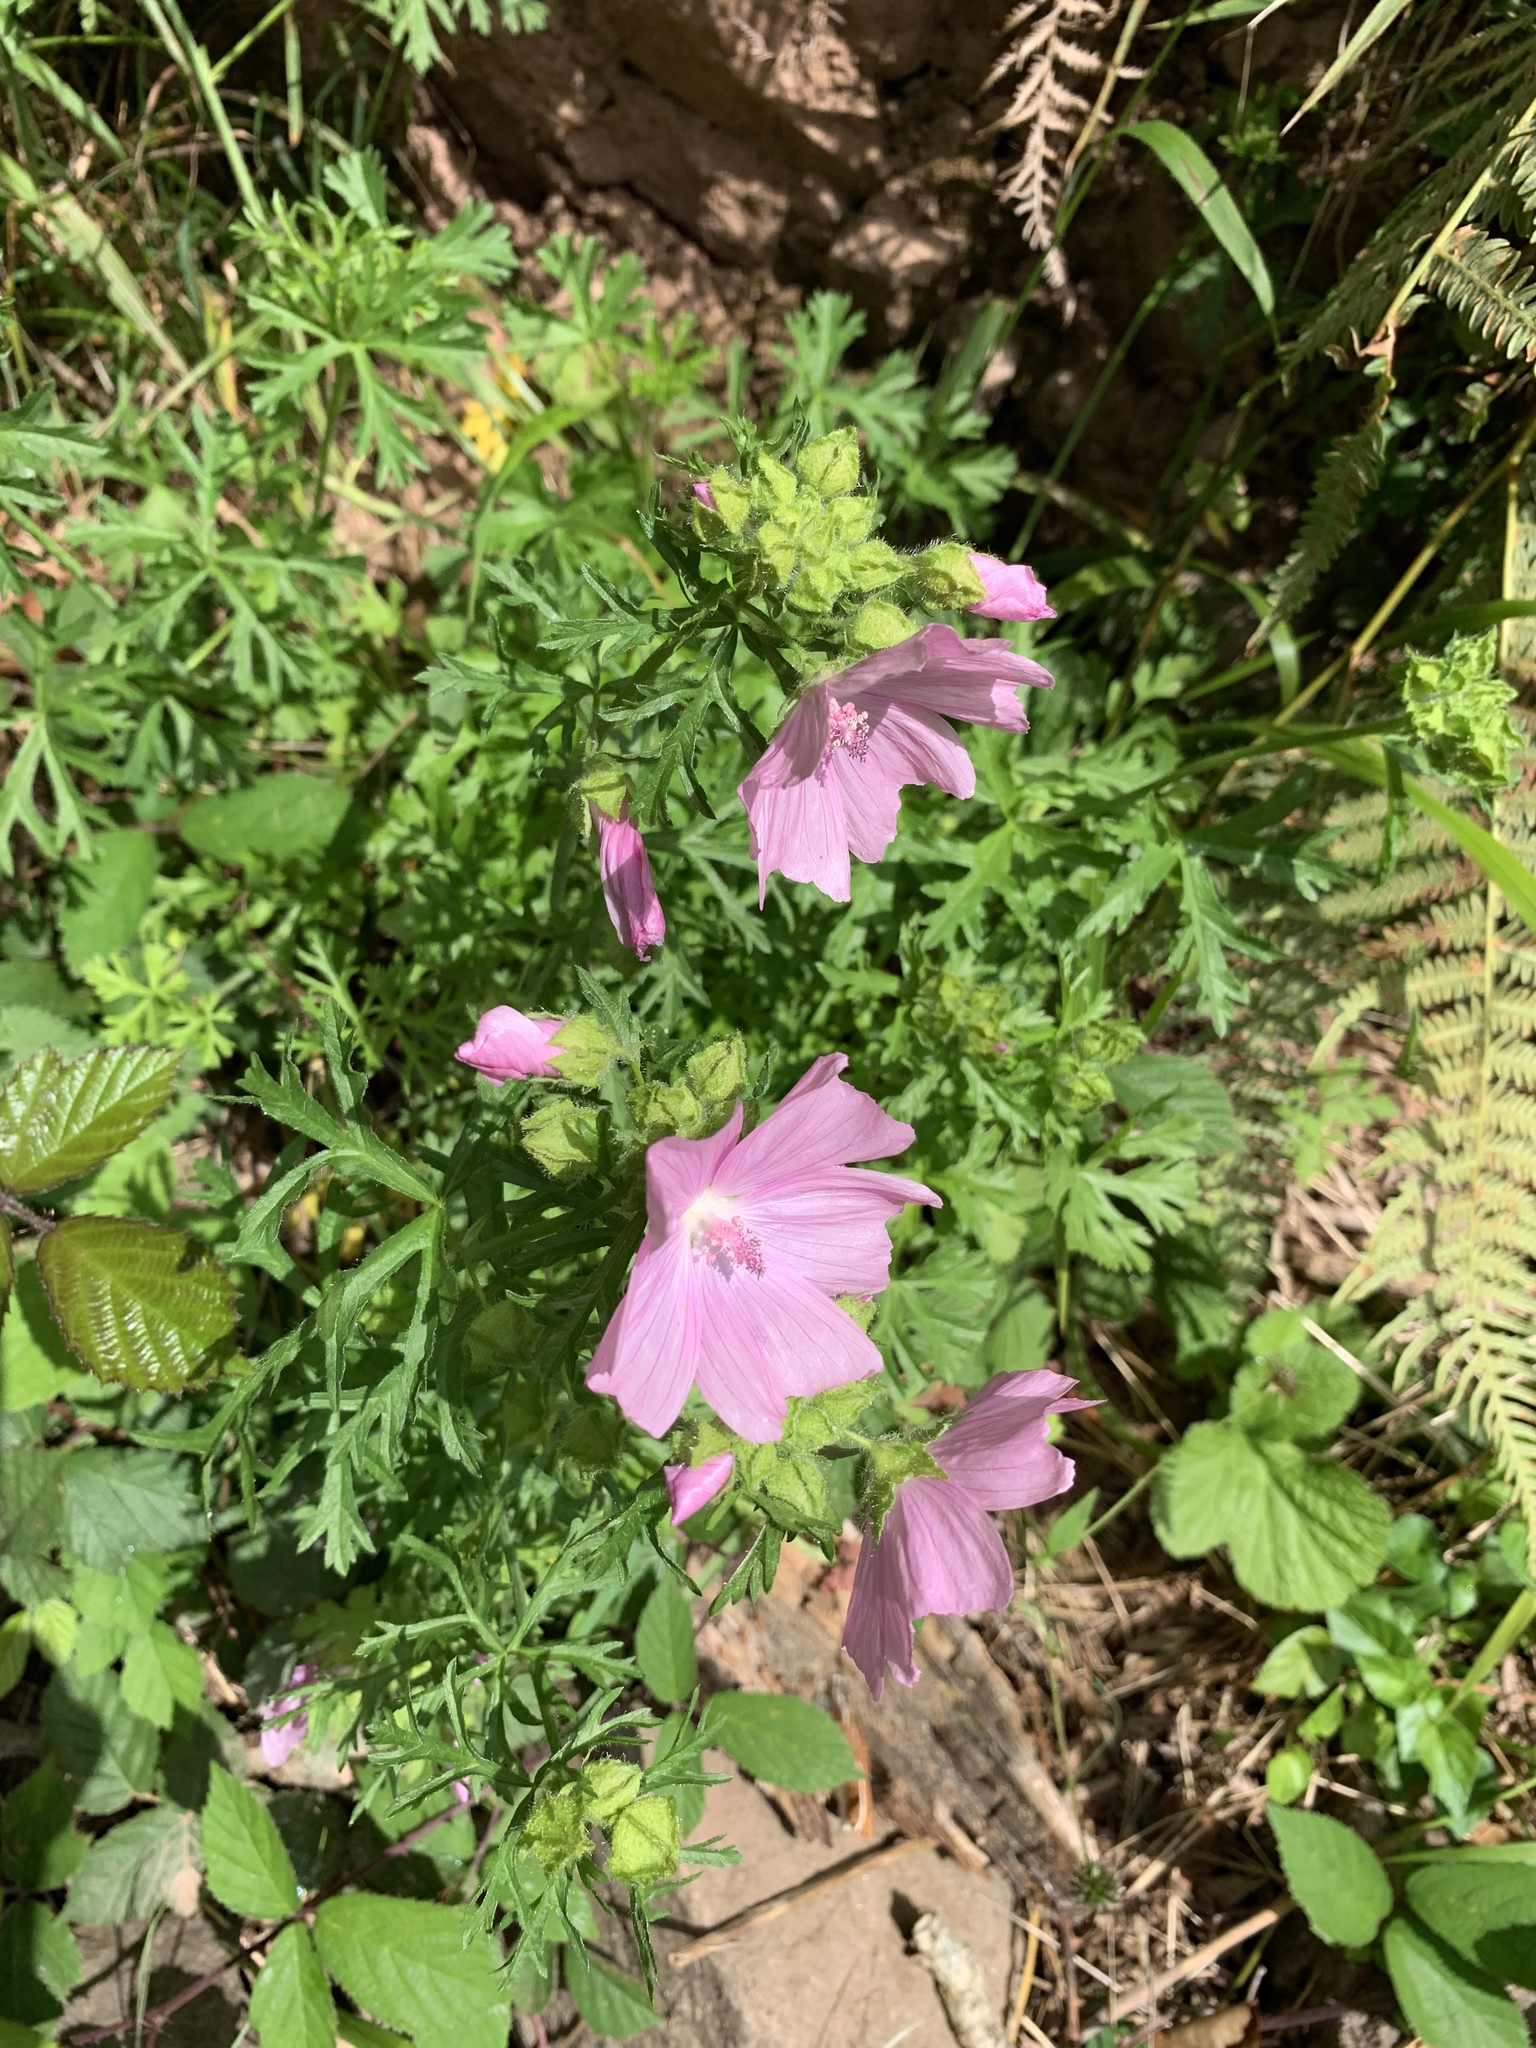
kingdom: Plantae
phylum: Tracheophyta
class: Magnoliopsida
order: Malvales
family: Malvaceae
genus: Malva
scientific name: Malva moschata
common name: Musk mallow
